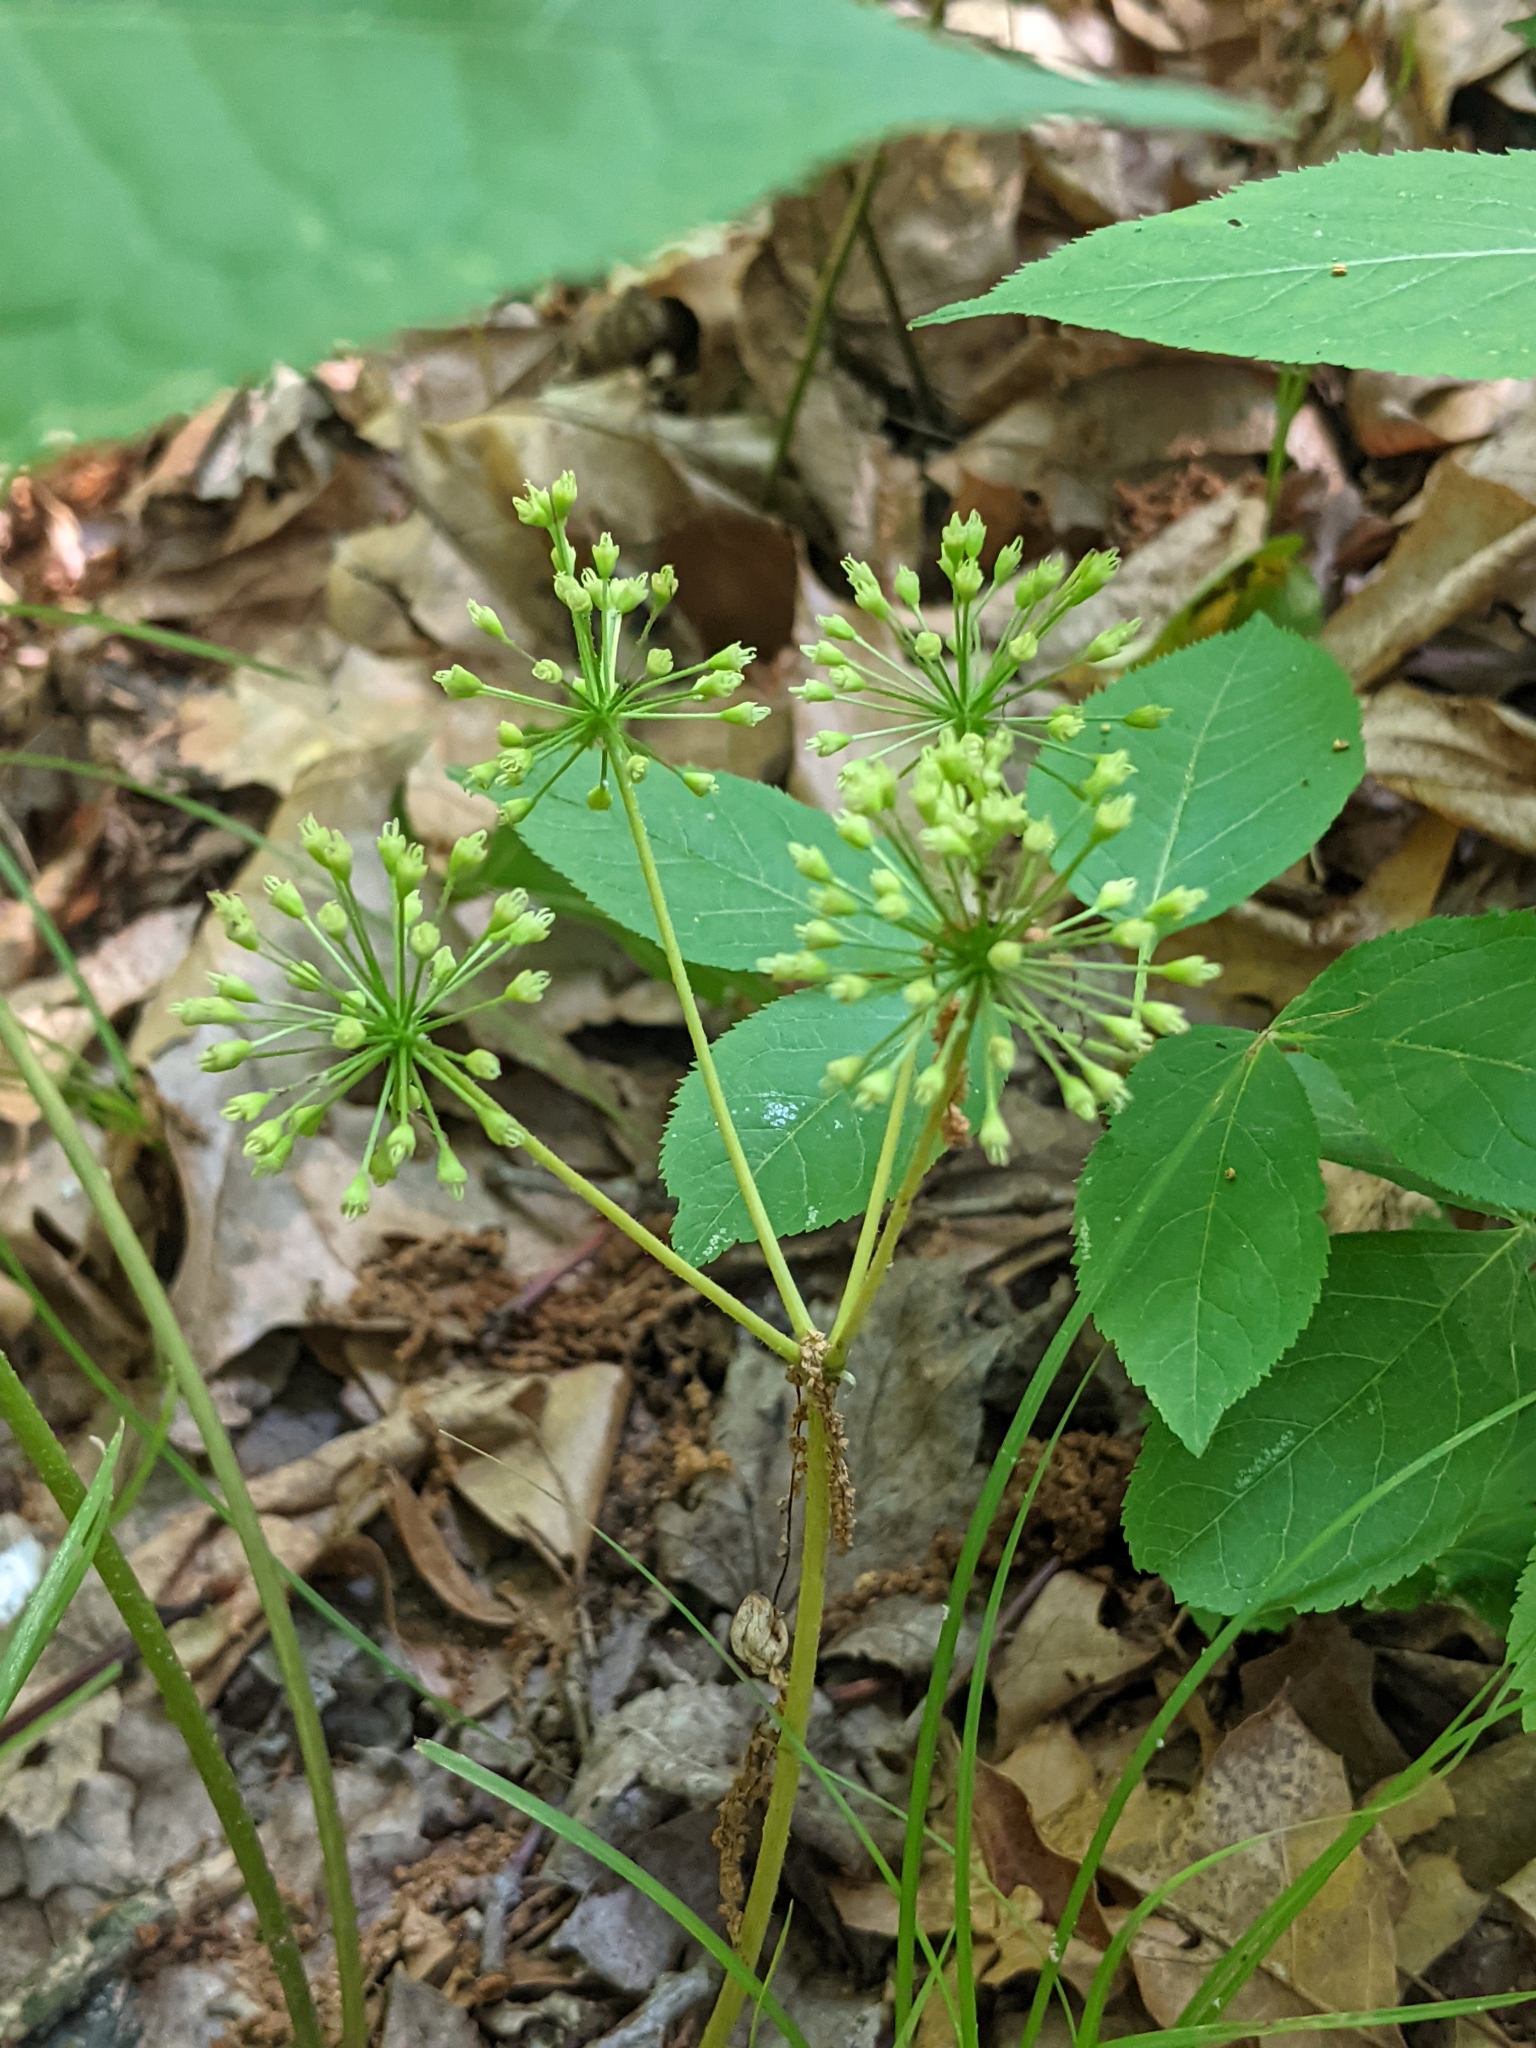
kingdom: Plantae
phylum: Tracheophyta
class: Magnoliopsida
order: Apiales
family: Araliaceae
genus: Aralia
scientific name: Aralia nudicaulis
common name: Wild sarsaparilla
